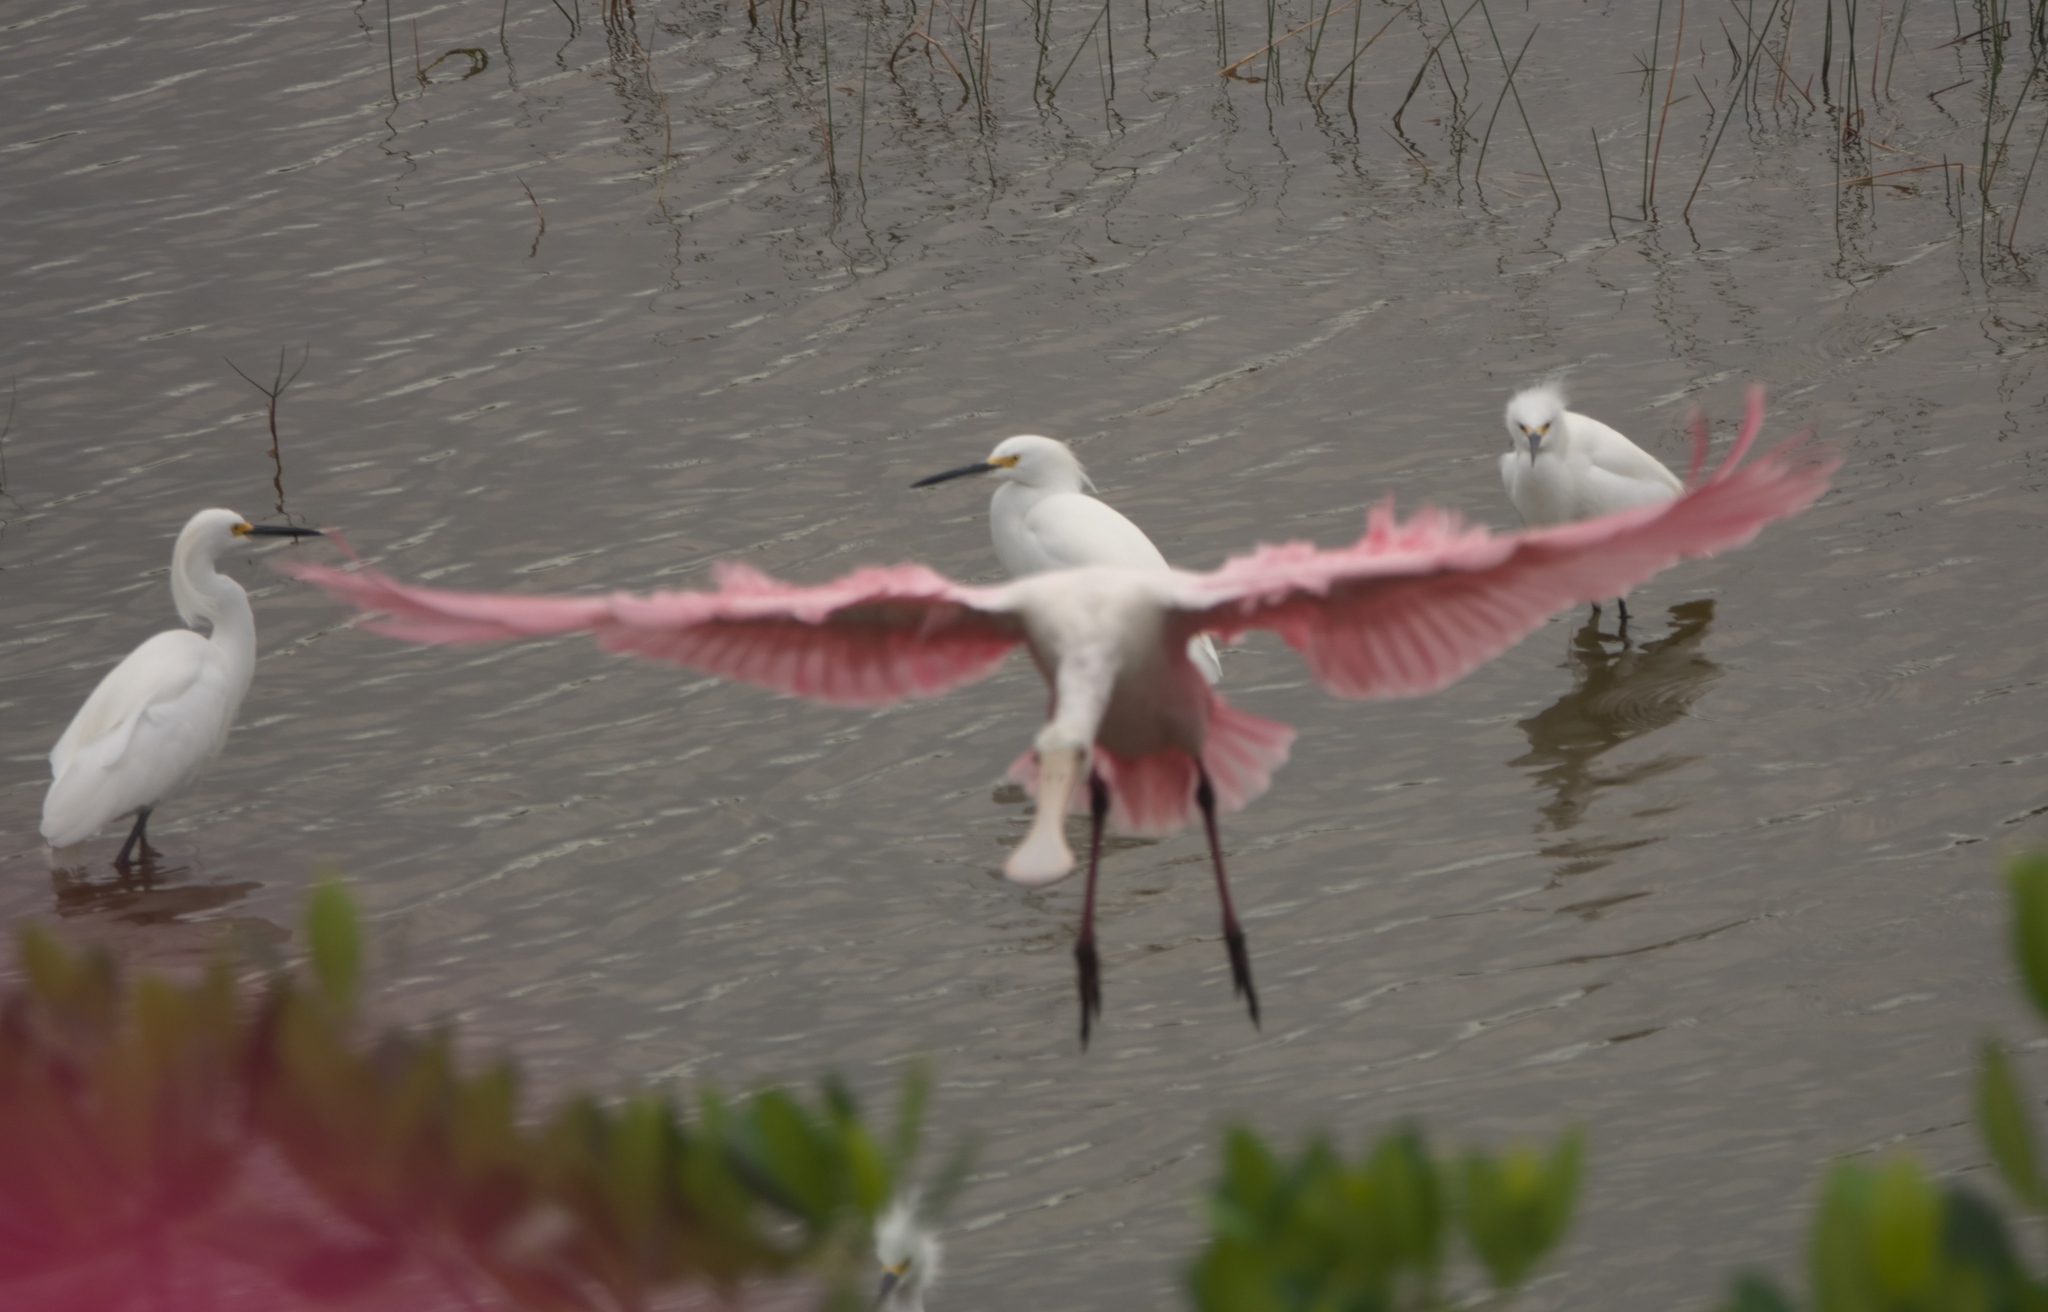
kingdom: Animalia
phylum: Chordata
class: Aves
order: Pelecaniformes
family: Threskiornithidae
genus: Platalea
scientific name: Platalea ajaja
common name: Roseate spoonbill
